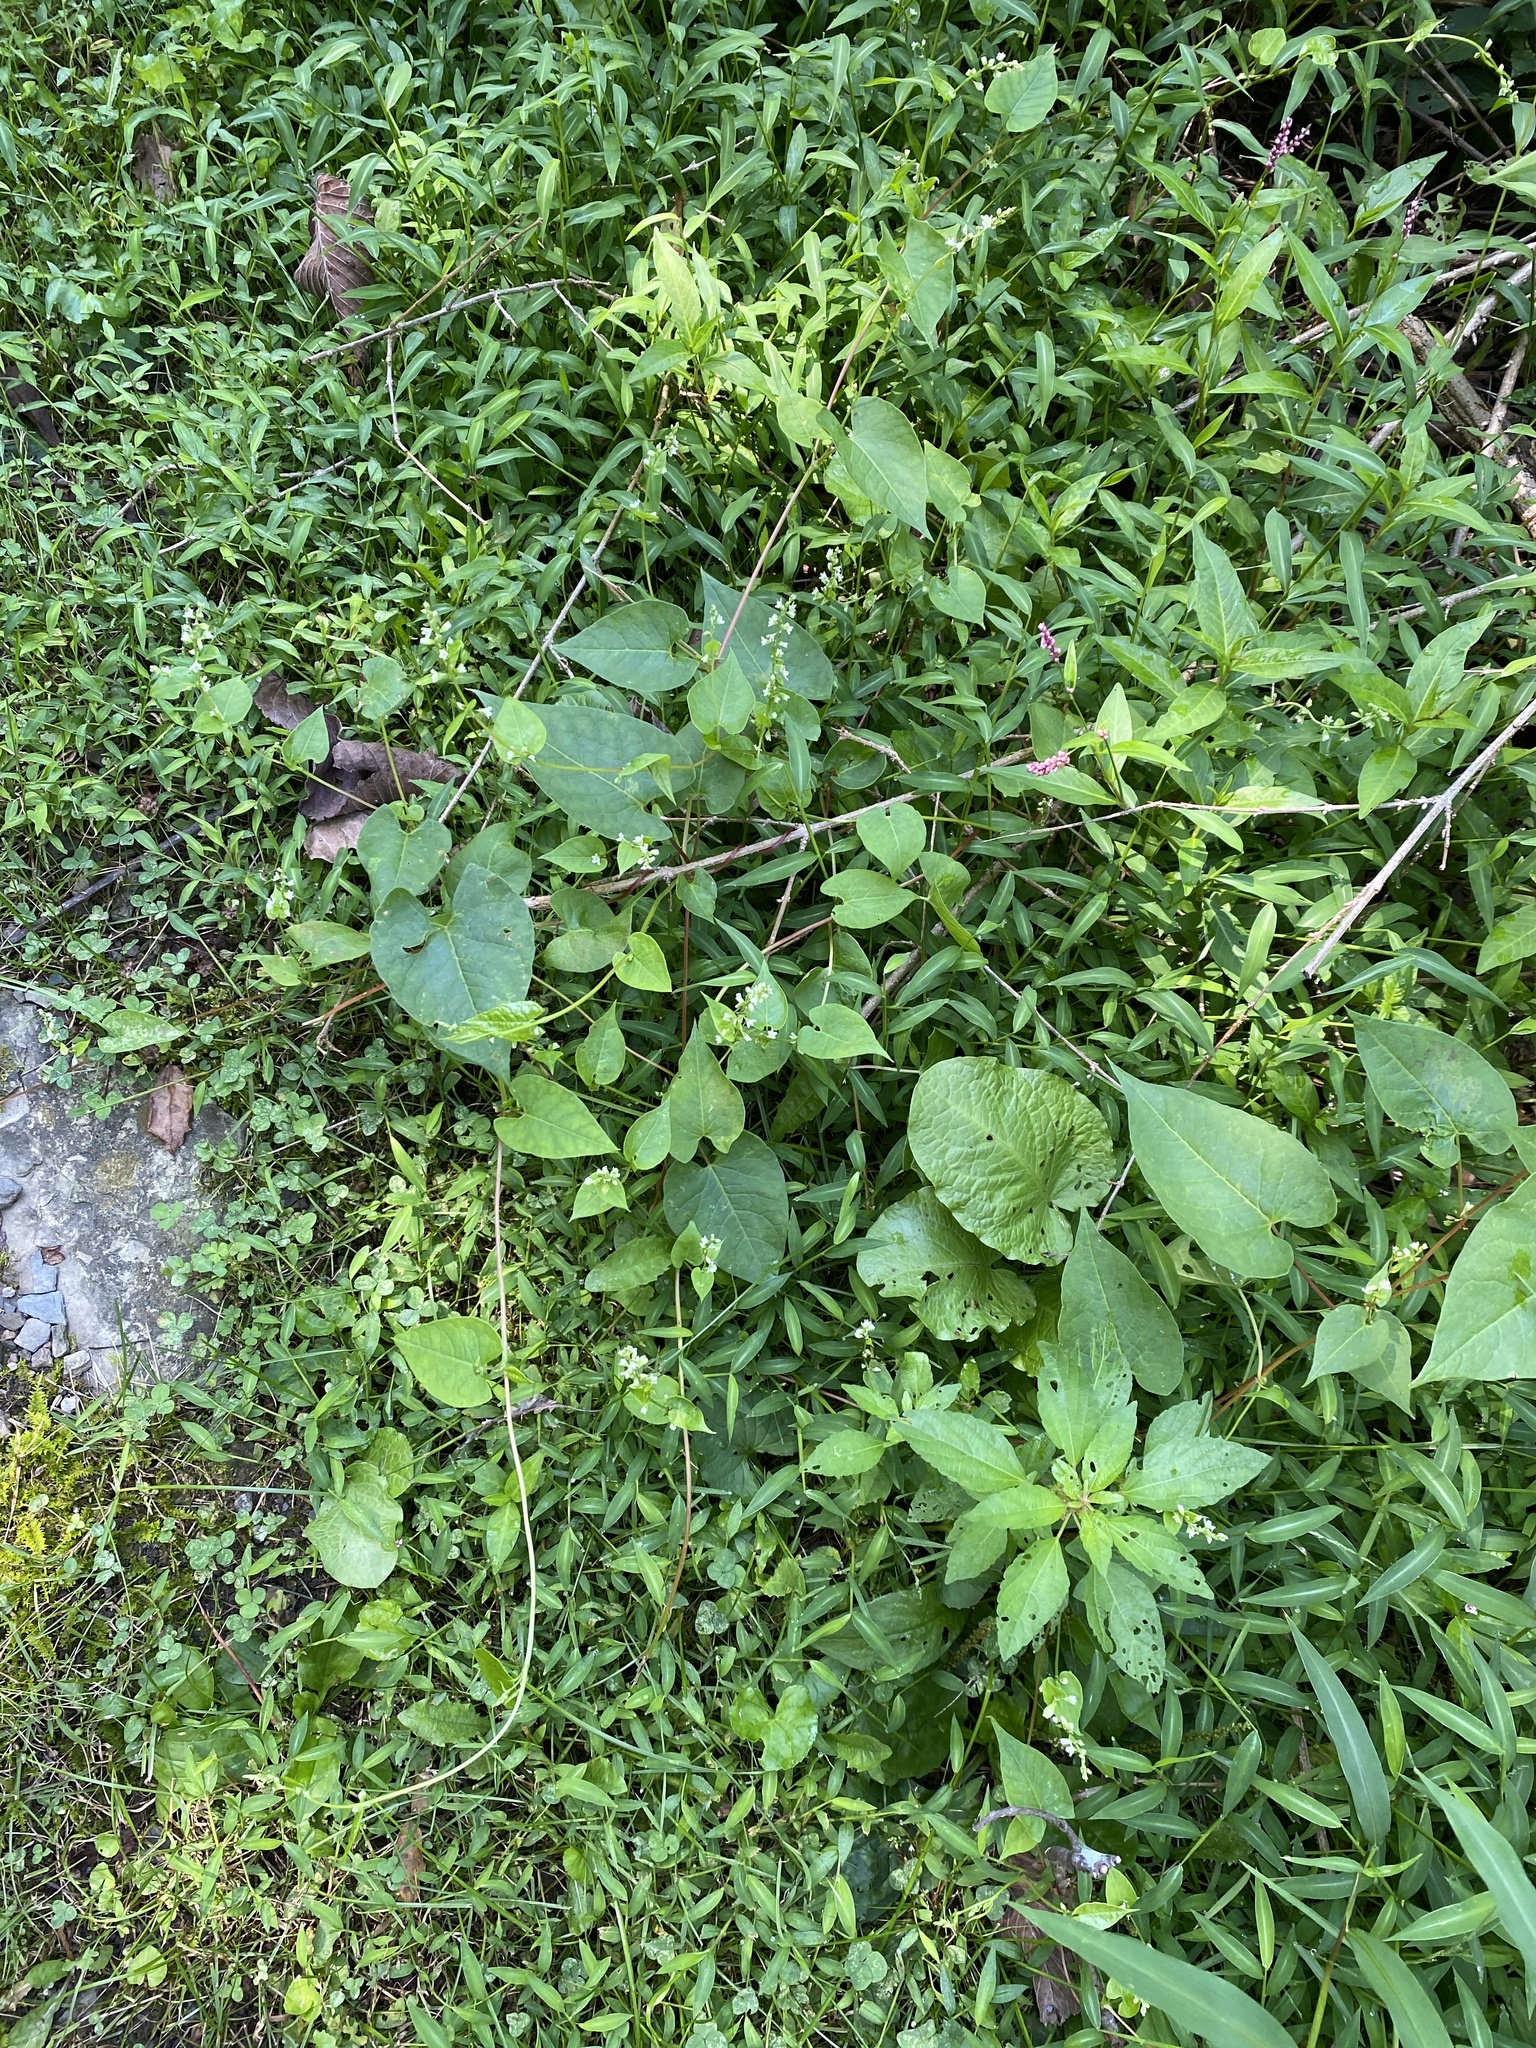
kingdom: Plantae
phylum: Tracheophyta
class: Magnoliopsida
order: Caryophyllales
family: Polygonaceae
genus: Fallopia
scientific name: Fallopia scandens
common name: Climbing false buckwheat
